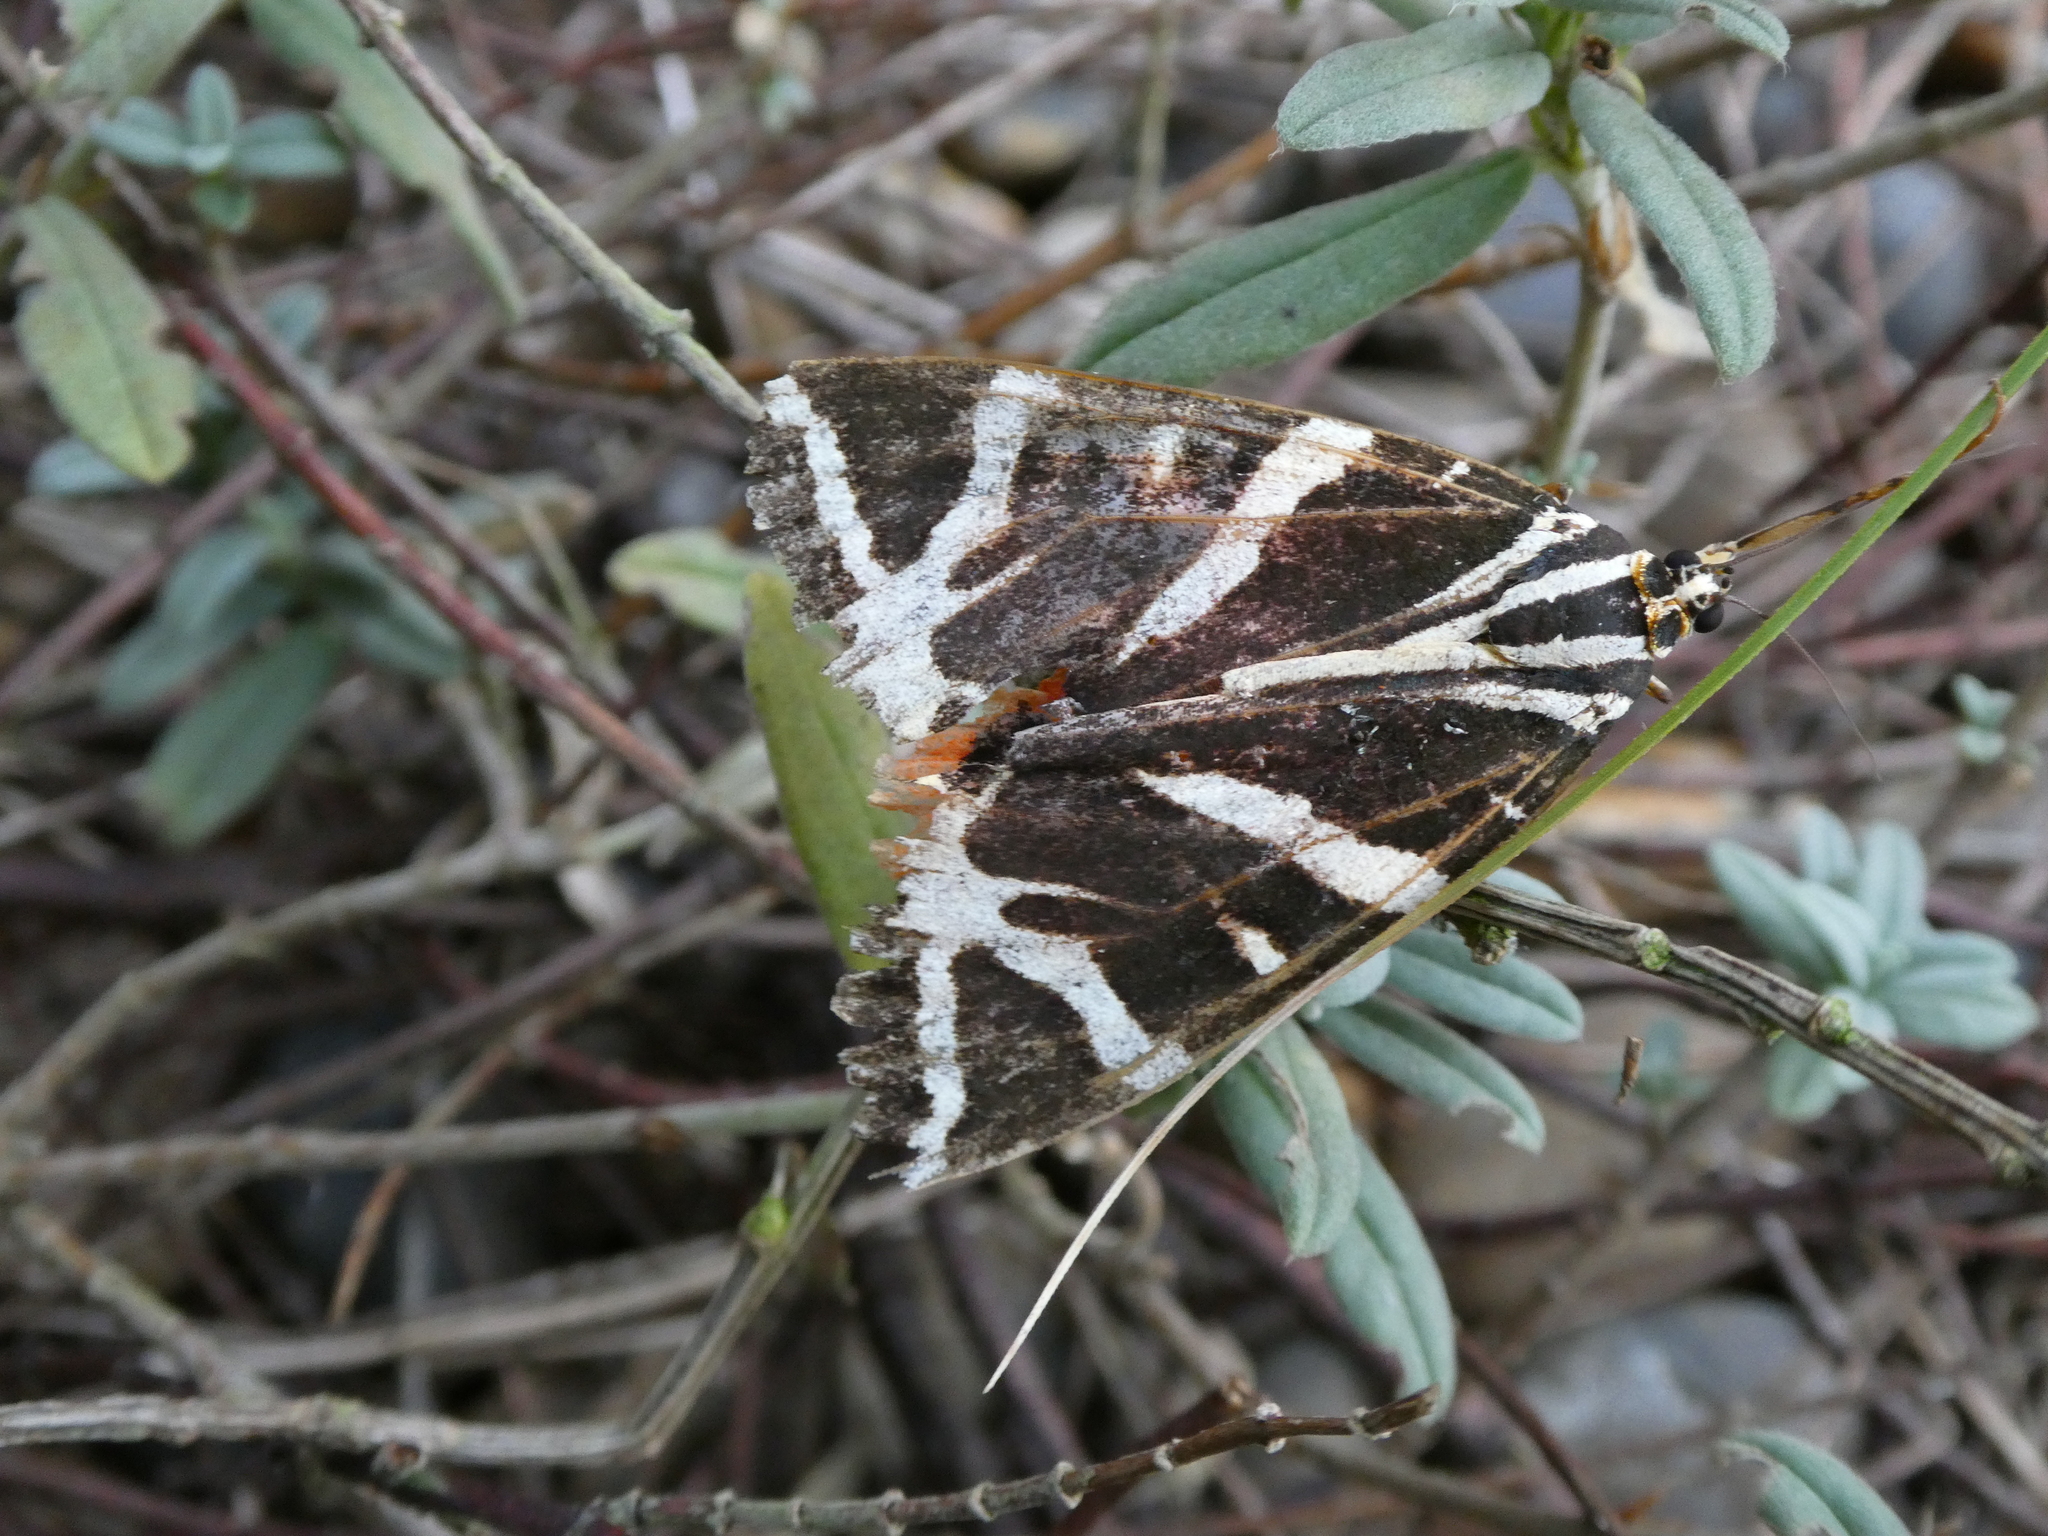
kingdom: Animalia
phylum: Arthropoda
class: Insecta
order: Lepidoptera
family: Erebidae
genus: Euplagia
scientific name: Euplagia quadripunctaria
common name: Jersey tiger
